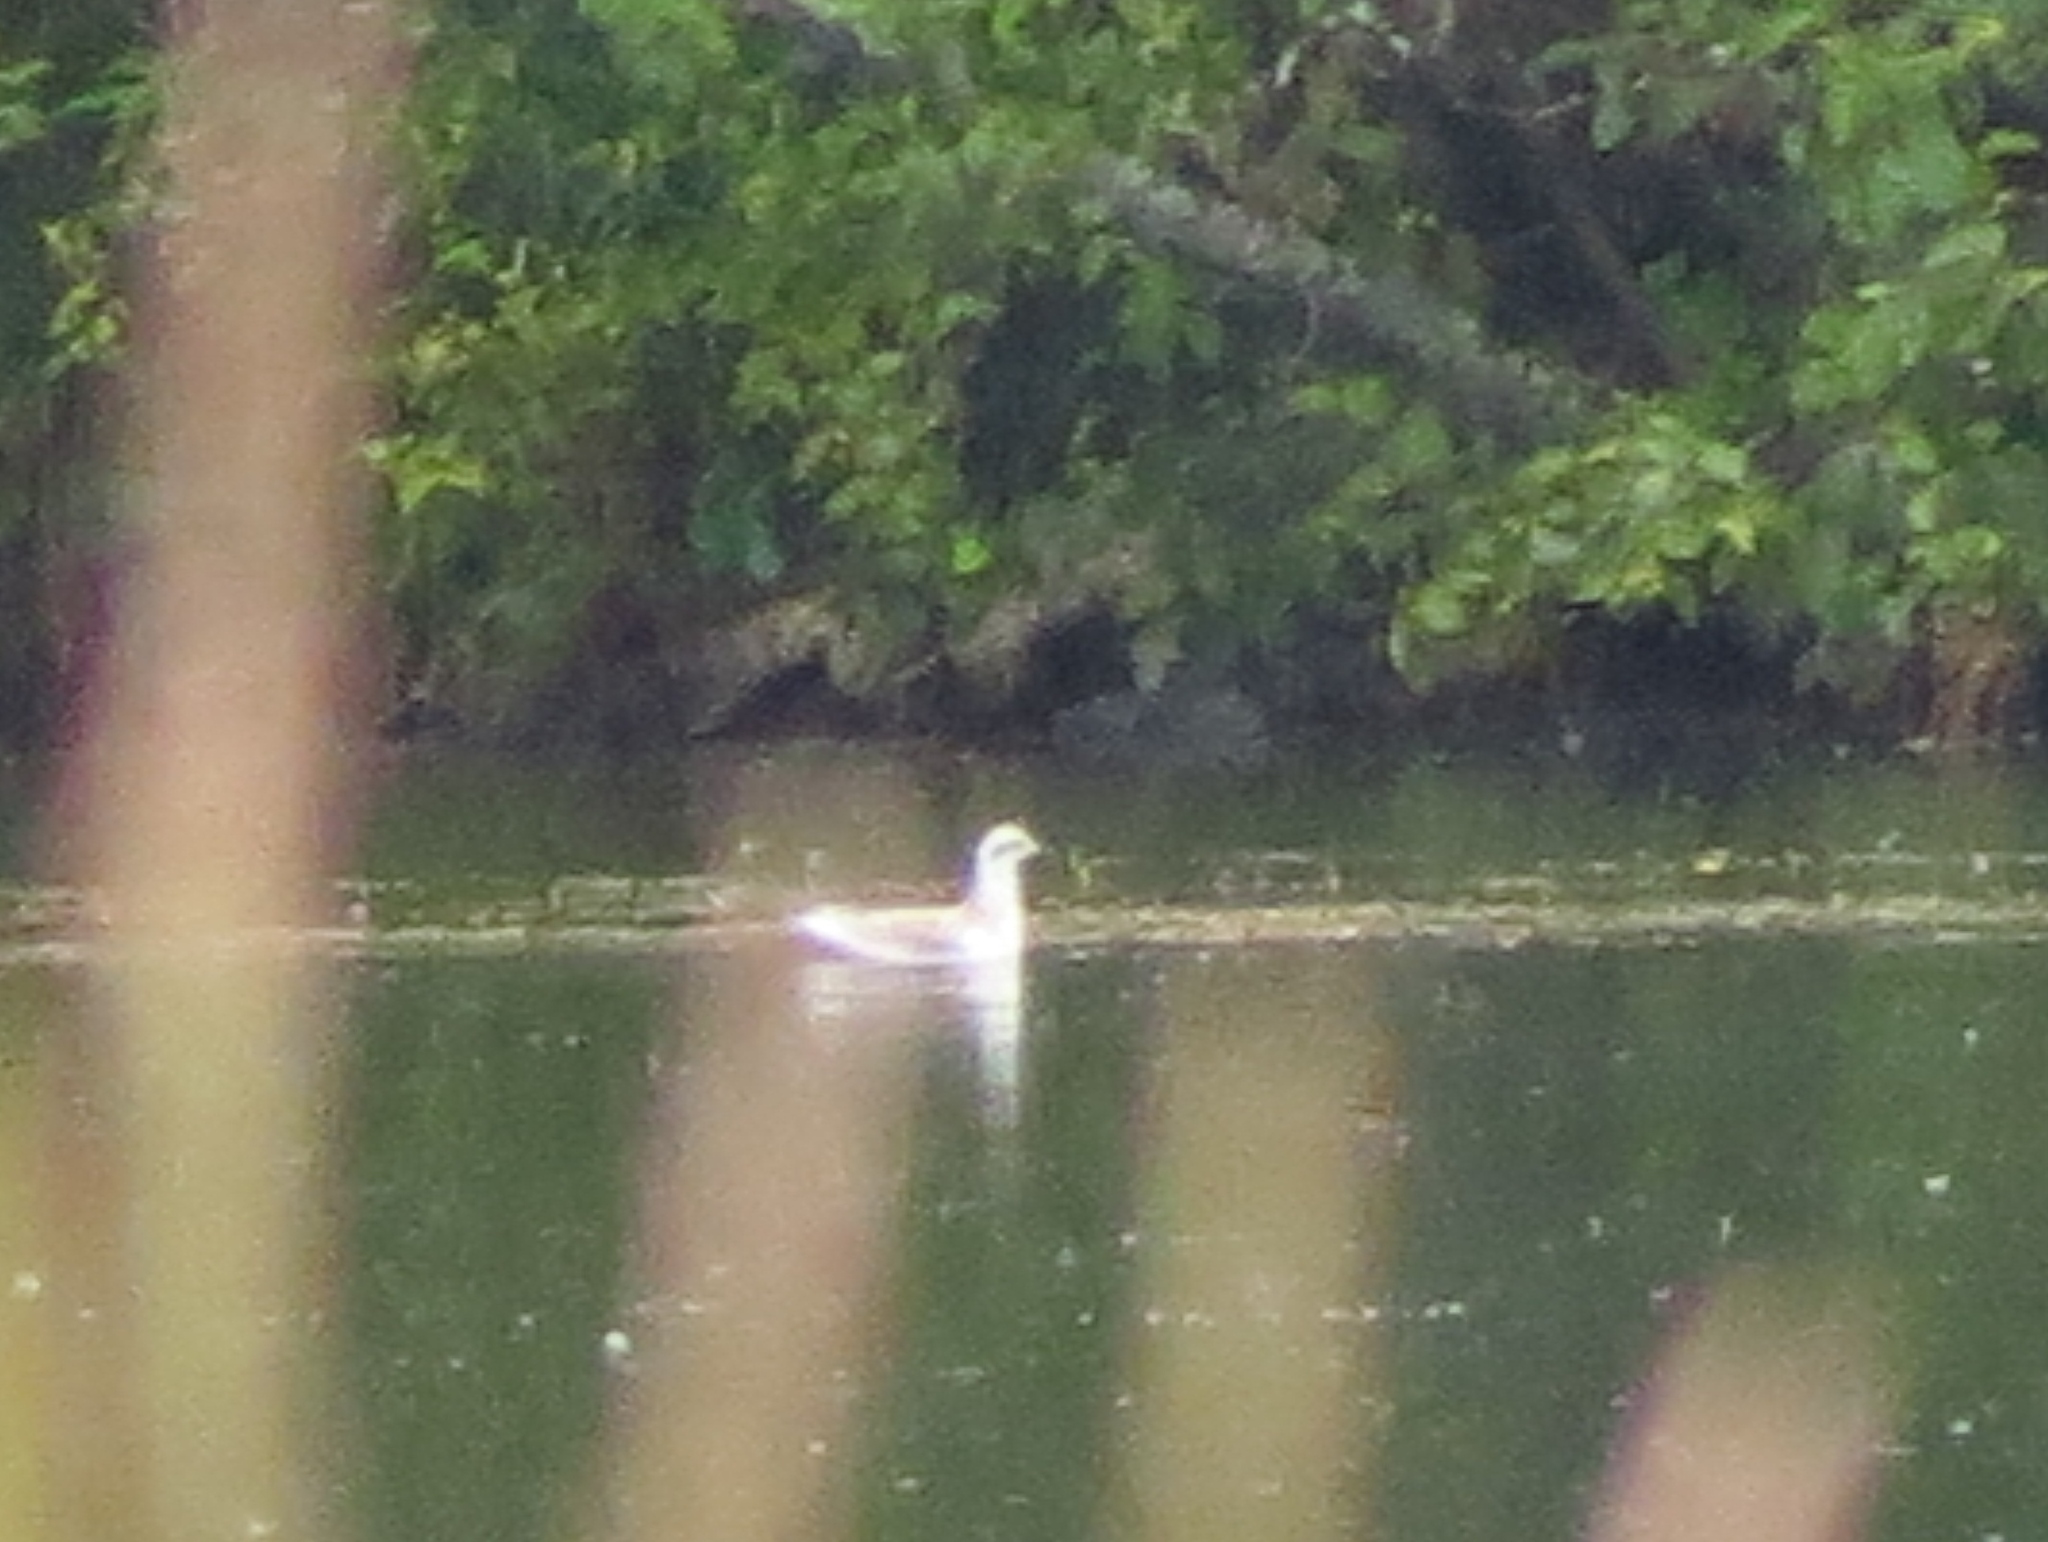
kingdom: Animalia
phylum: Chordata
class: Aves
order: Charadriiformes
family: Scolopacidae
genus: Phalaropus
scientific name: Phalaropus lobatus
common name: Red-necked phalarope
